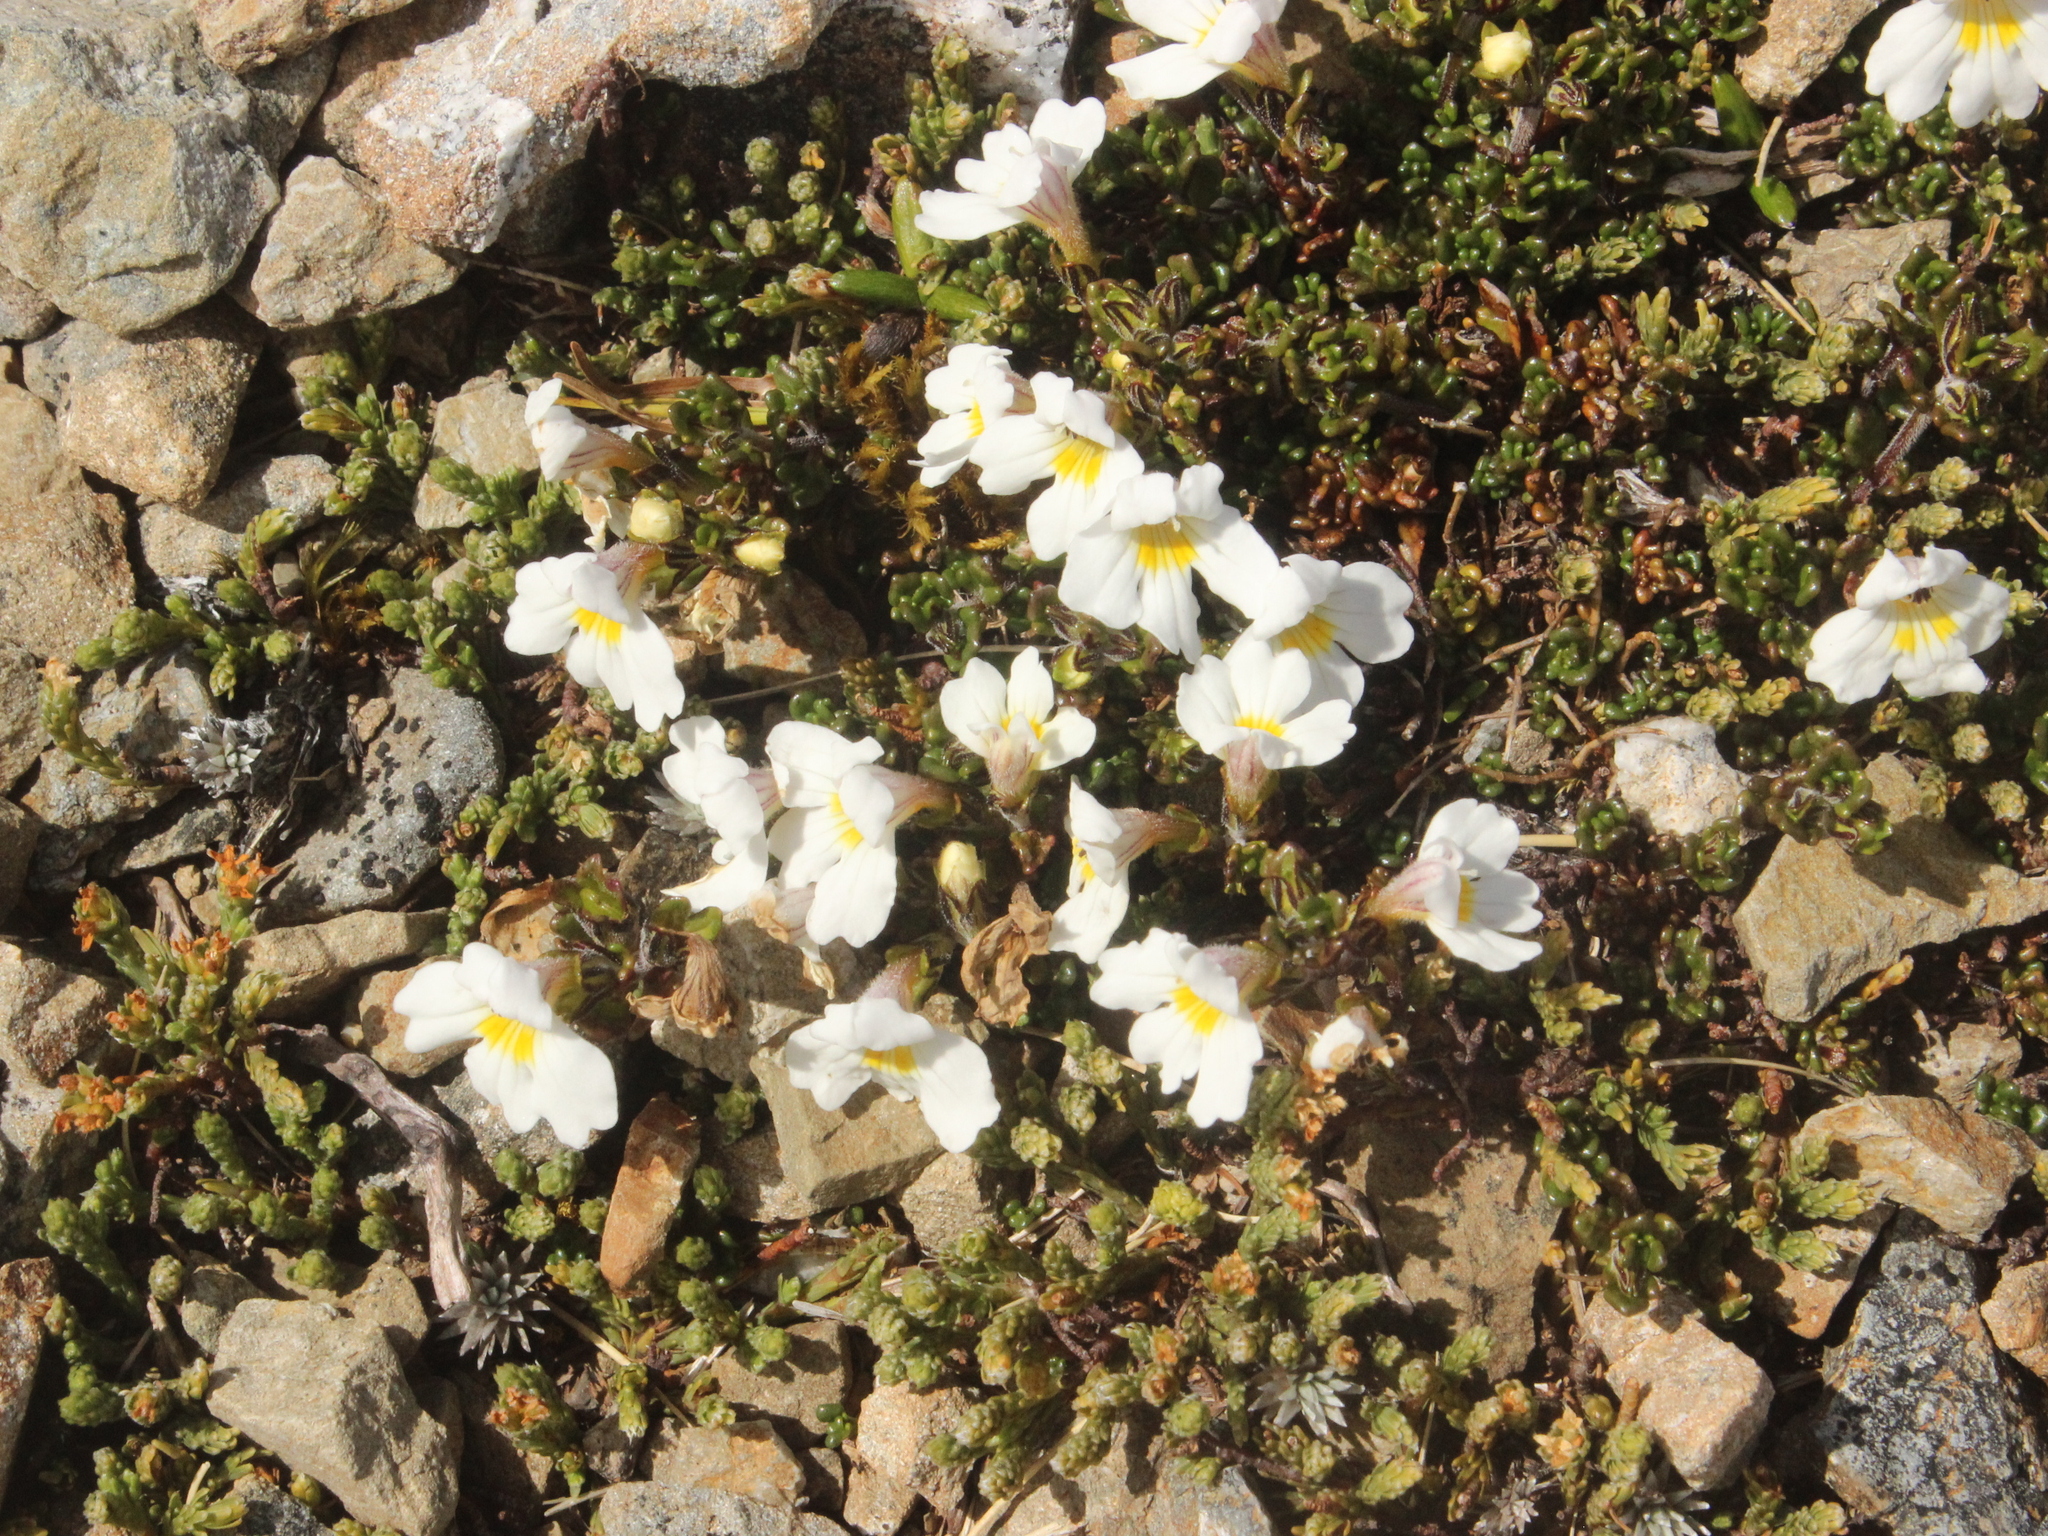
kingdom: Plantae
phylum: Tracheophyta
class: Magnoliopsida
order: Lamiales
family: Orobanchaceae
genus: Euphrasia
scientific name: Euphrasia revoluta
